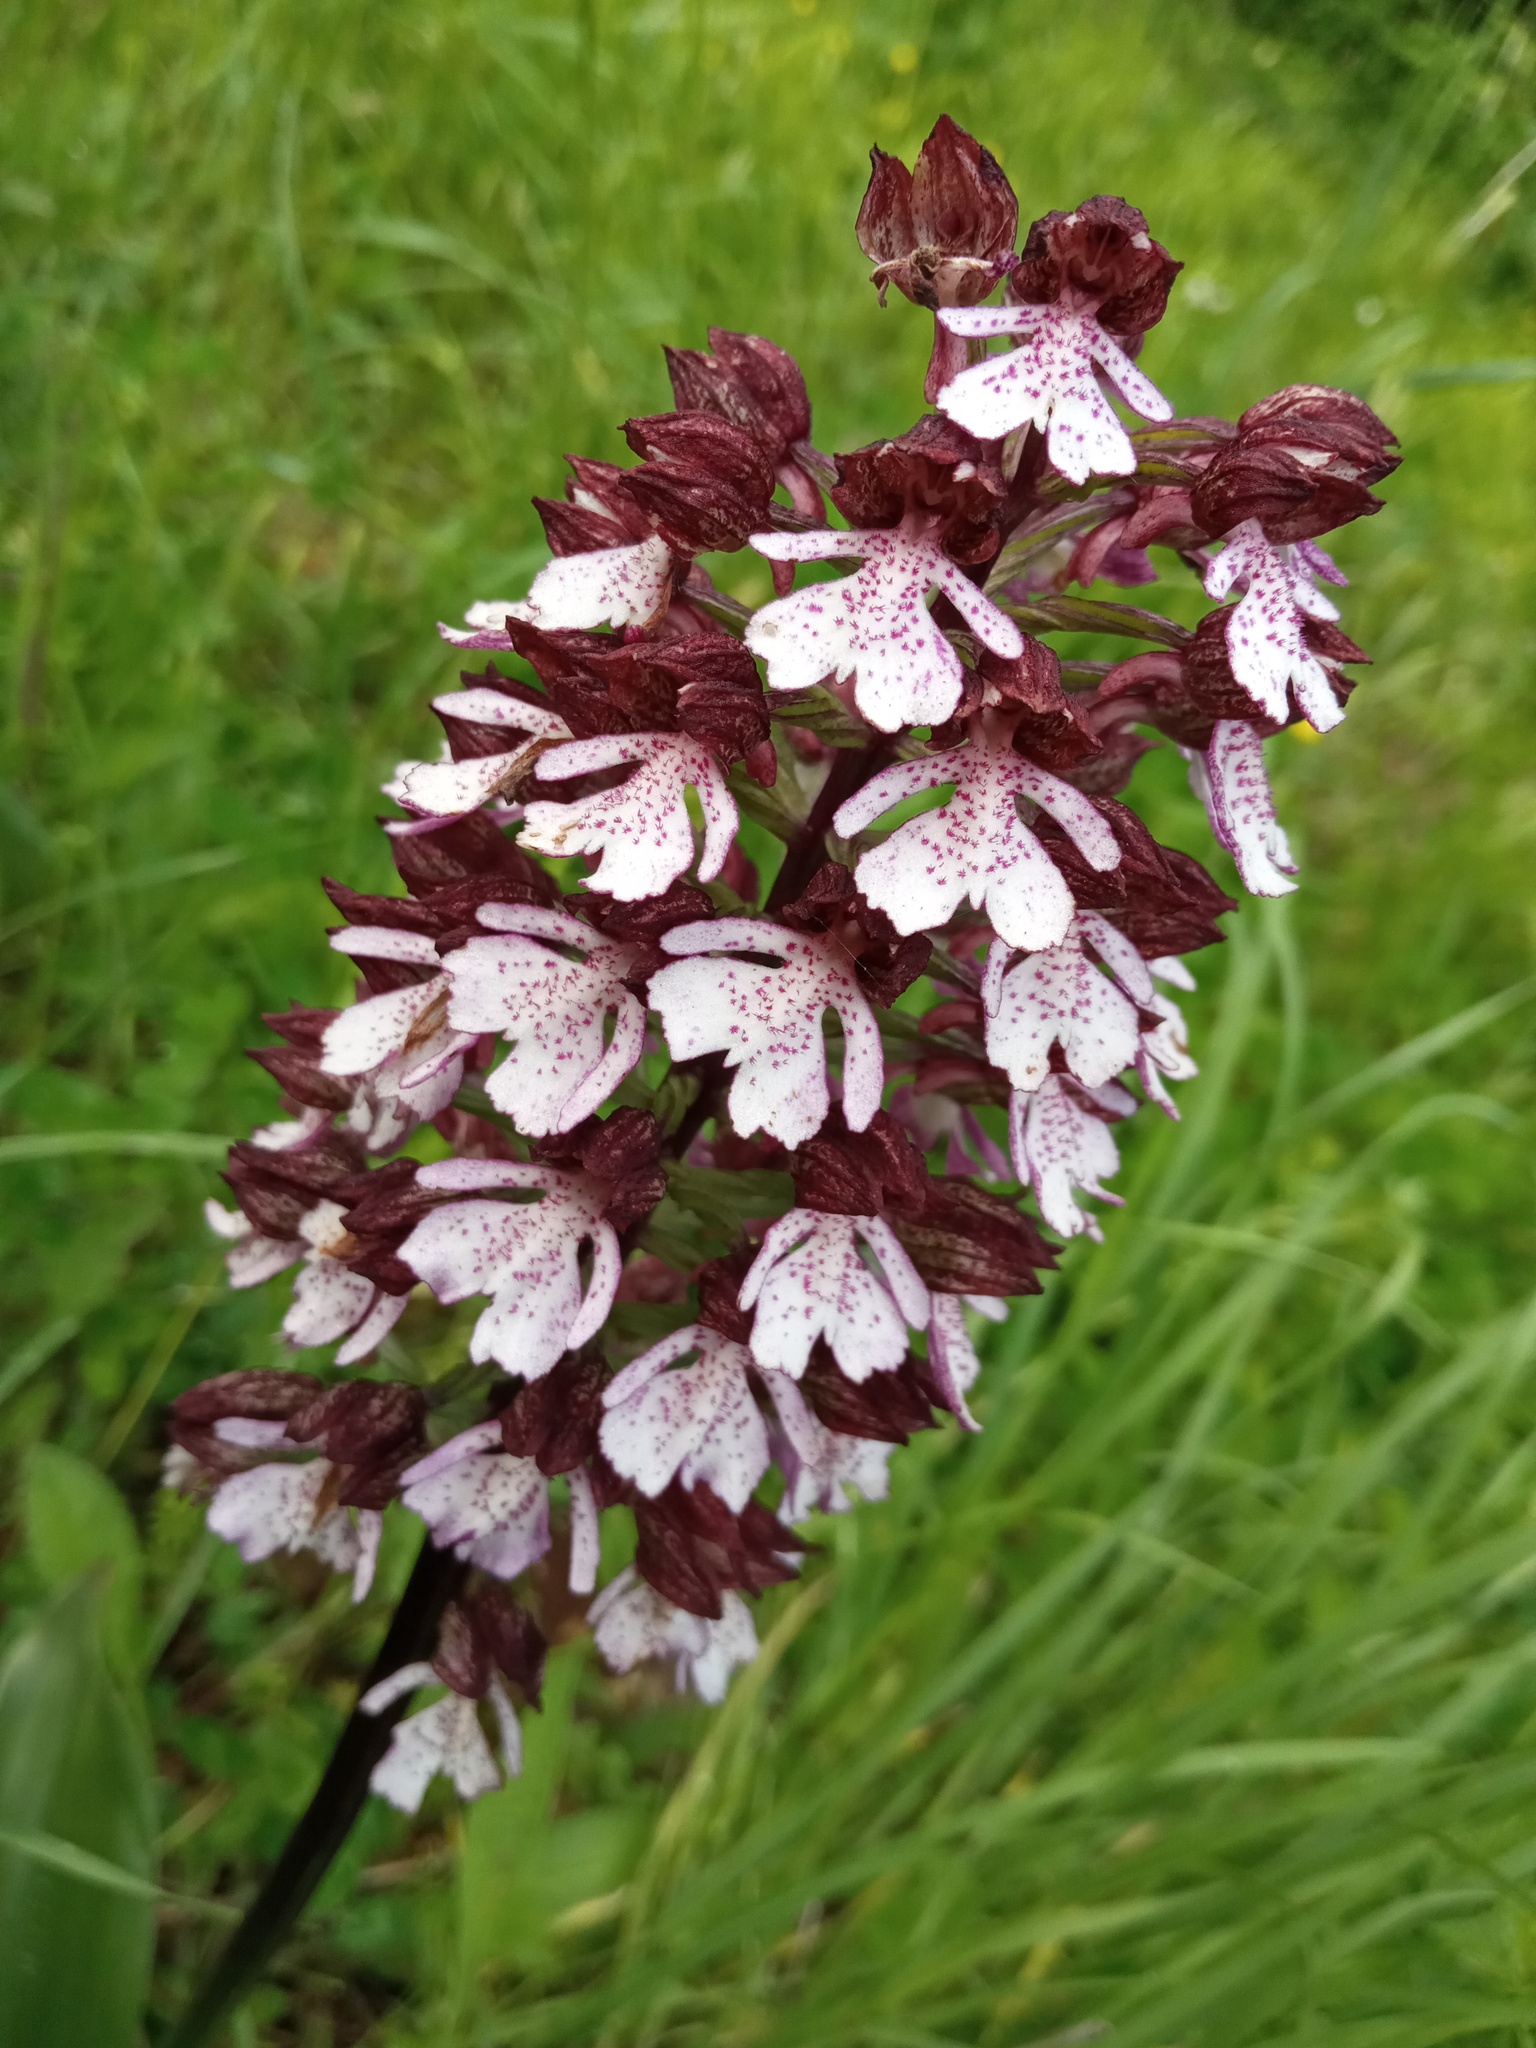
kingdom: Plantae
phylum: Tracheophyta
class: Liliopsida
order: Asparagales
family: Orchidaceae
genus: Orchis
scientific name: Orchis purpurea
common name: Lady orchid
